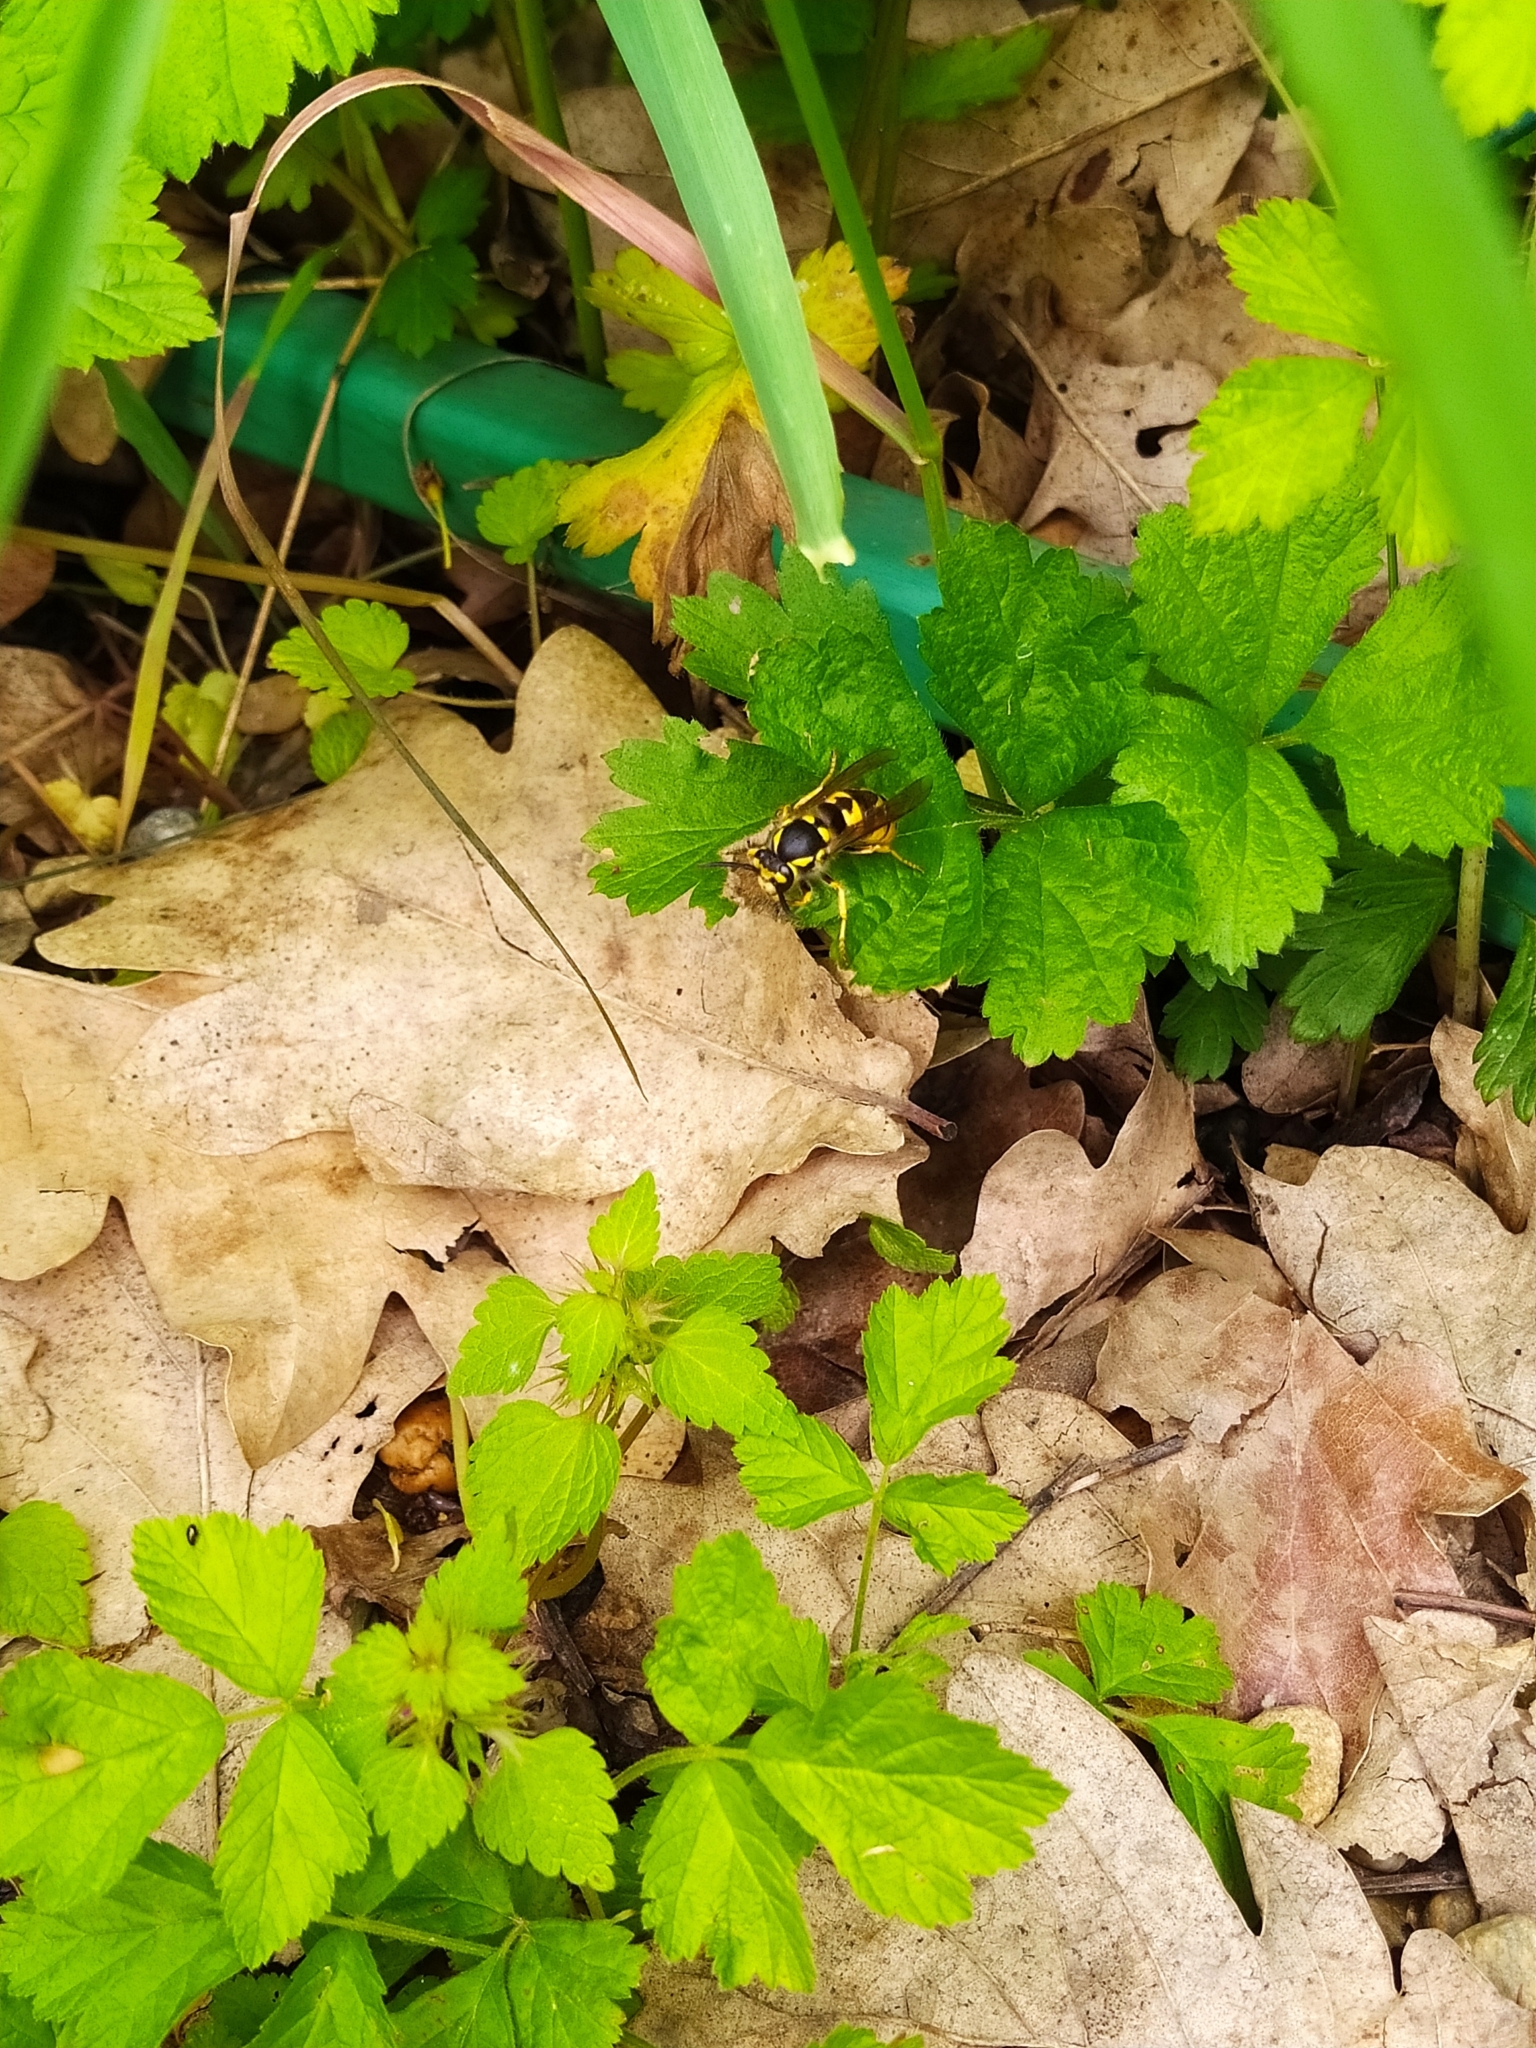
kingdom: Animalia
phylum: Arthropoda
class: Insecta
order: Hymenoptera
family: Vespidae
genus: Vespula
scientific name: Vespula germanica
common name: German wasp
